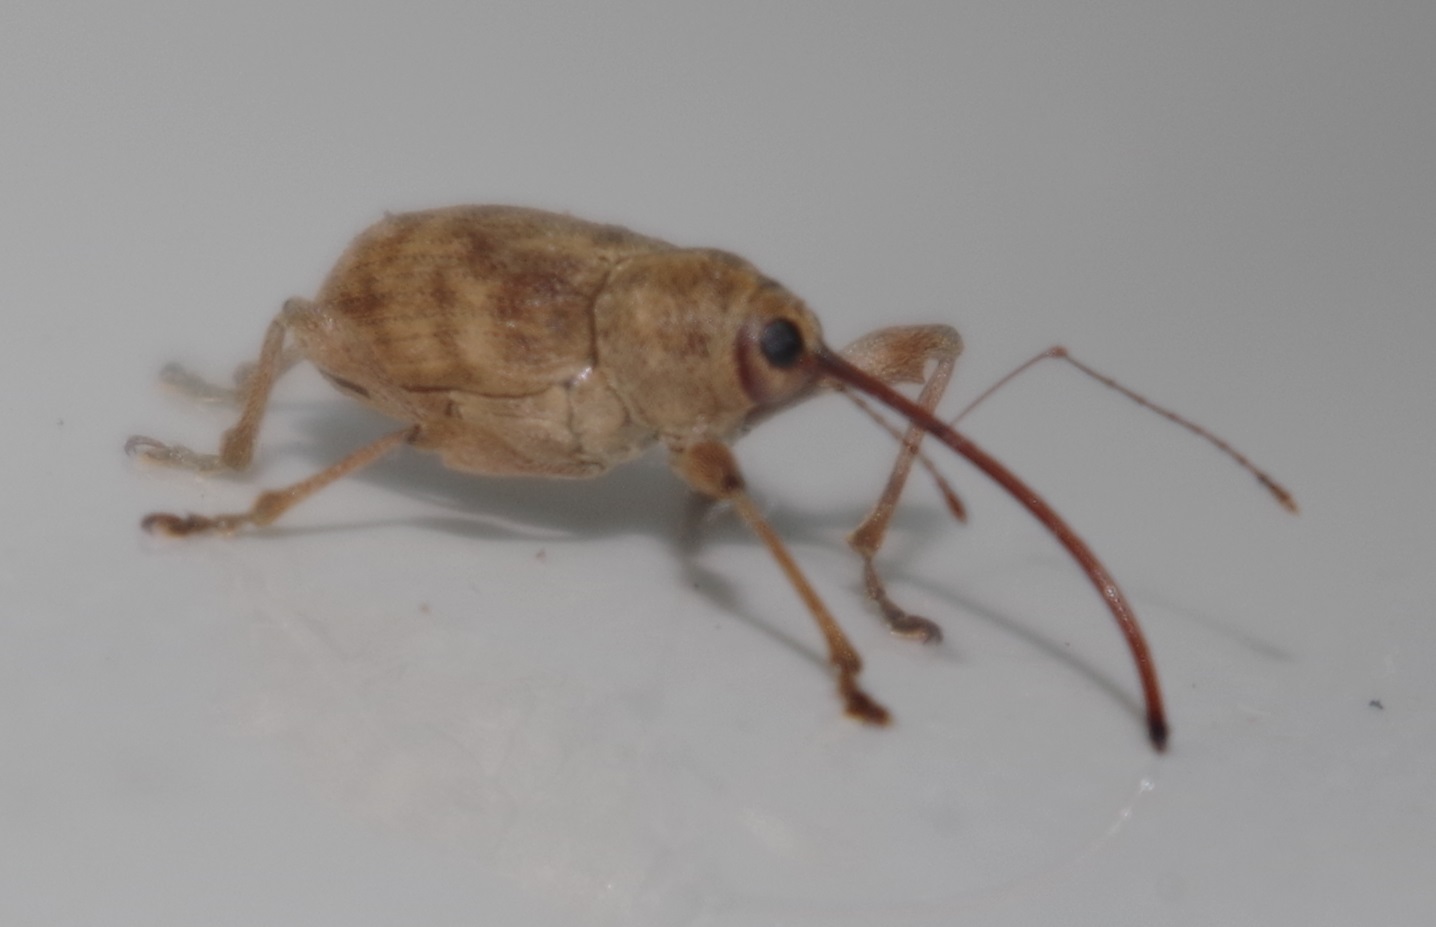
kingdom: Animalia
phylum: Arthropoda
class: Insecta
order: Coleoptera
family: Curculionidae
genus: Curculio
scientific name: Curculio elephas
